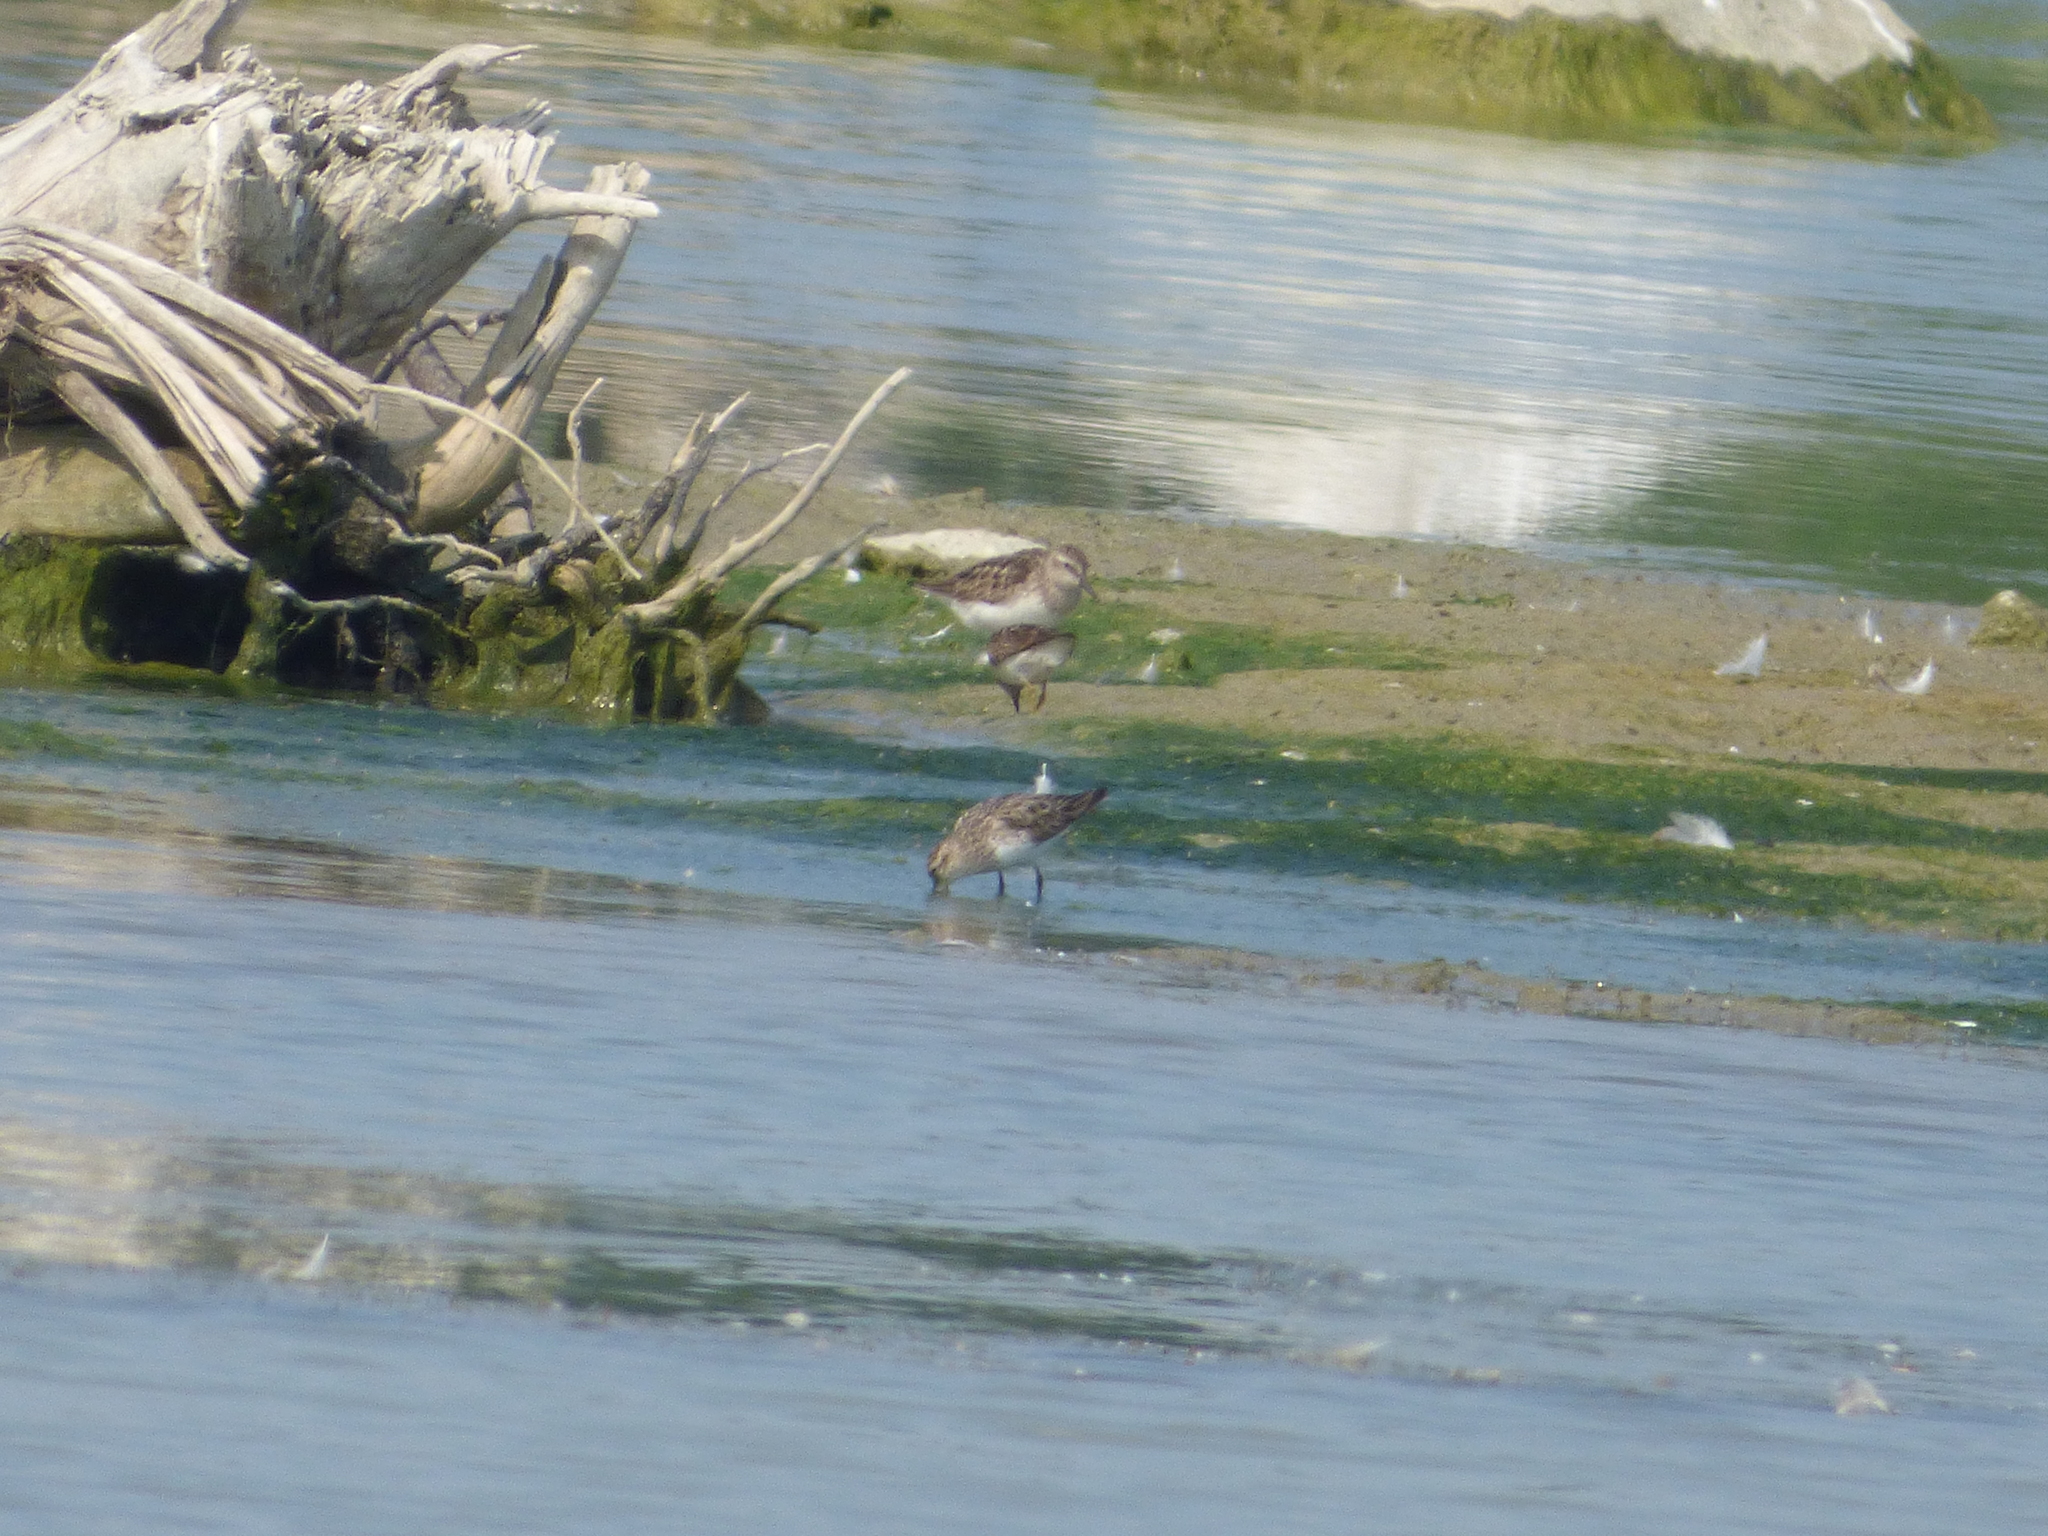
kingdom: Animalia
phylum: Chordata
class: Aves
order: Charadriiformes
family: Scolopacidae
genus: Calidris
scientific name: Calidris pusilla
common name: Semipalmated sandpiper
